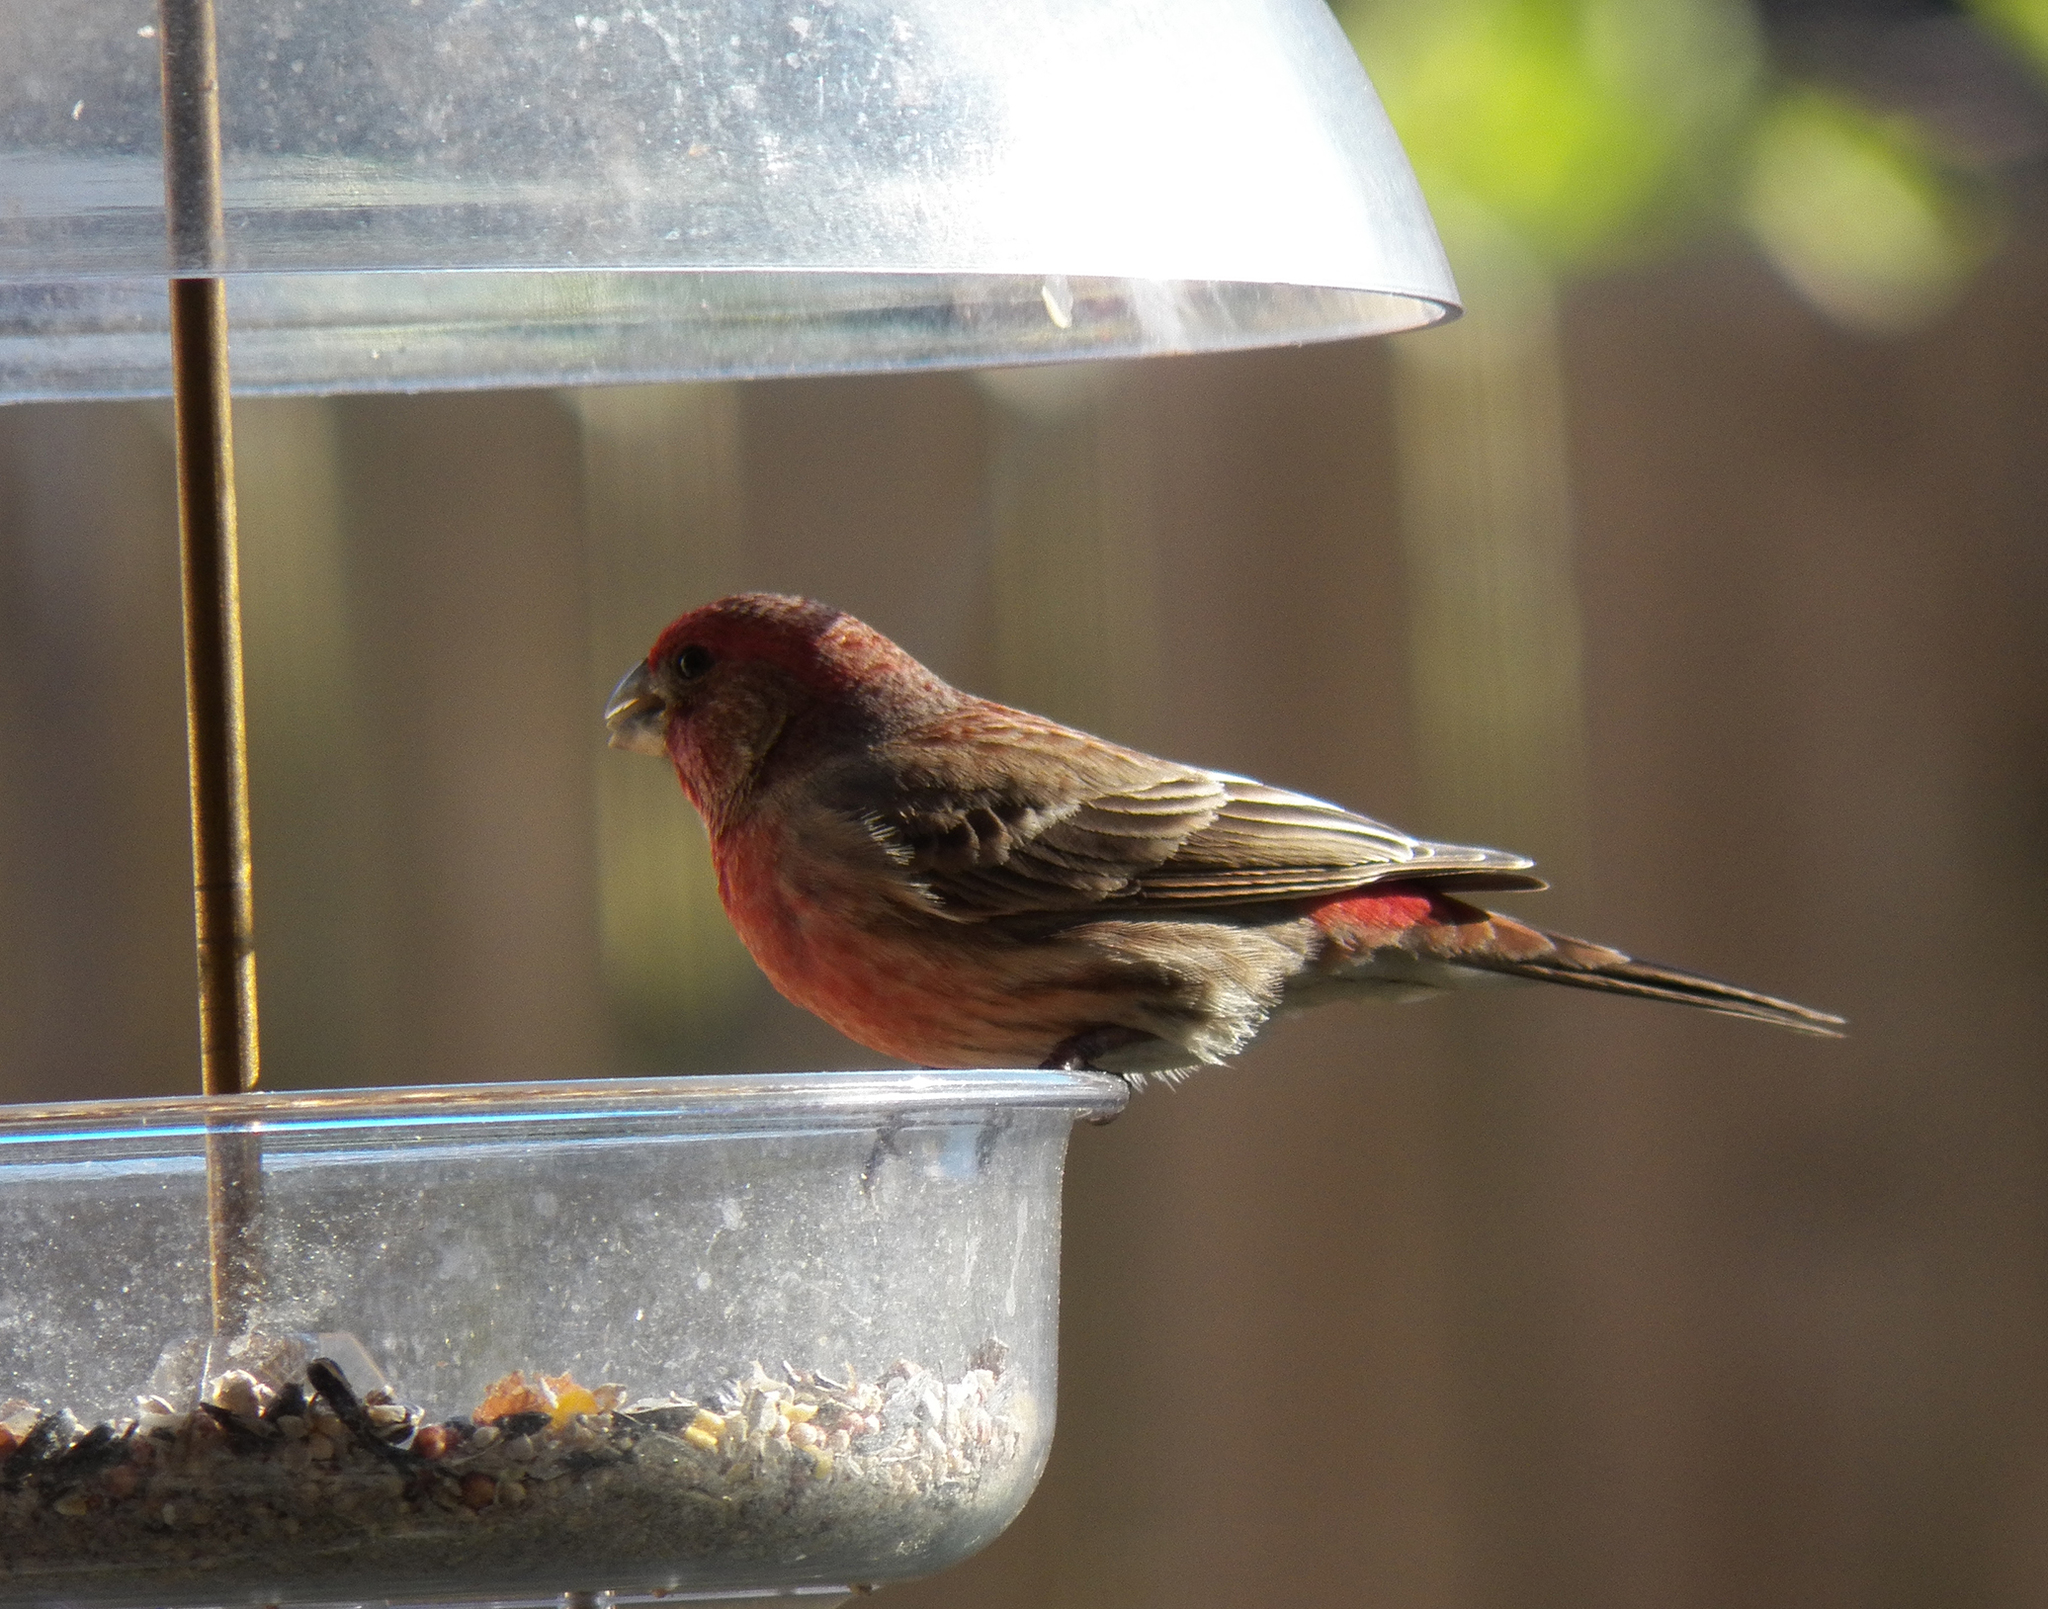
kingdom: Animalia
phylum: Chordata
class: Aves
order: Passeriformes
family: Fringillidae
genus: Haemorhous
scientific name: Haemorhous mexicanus
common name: House finch
